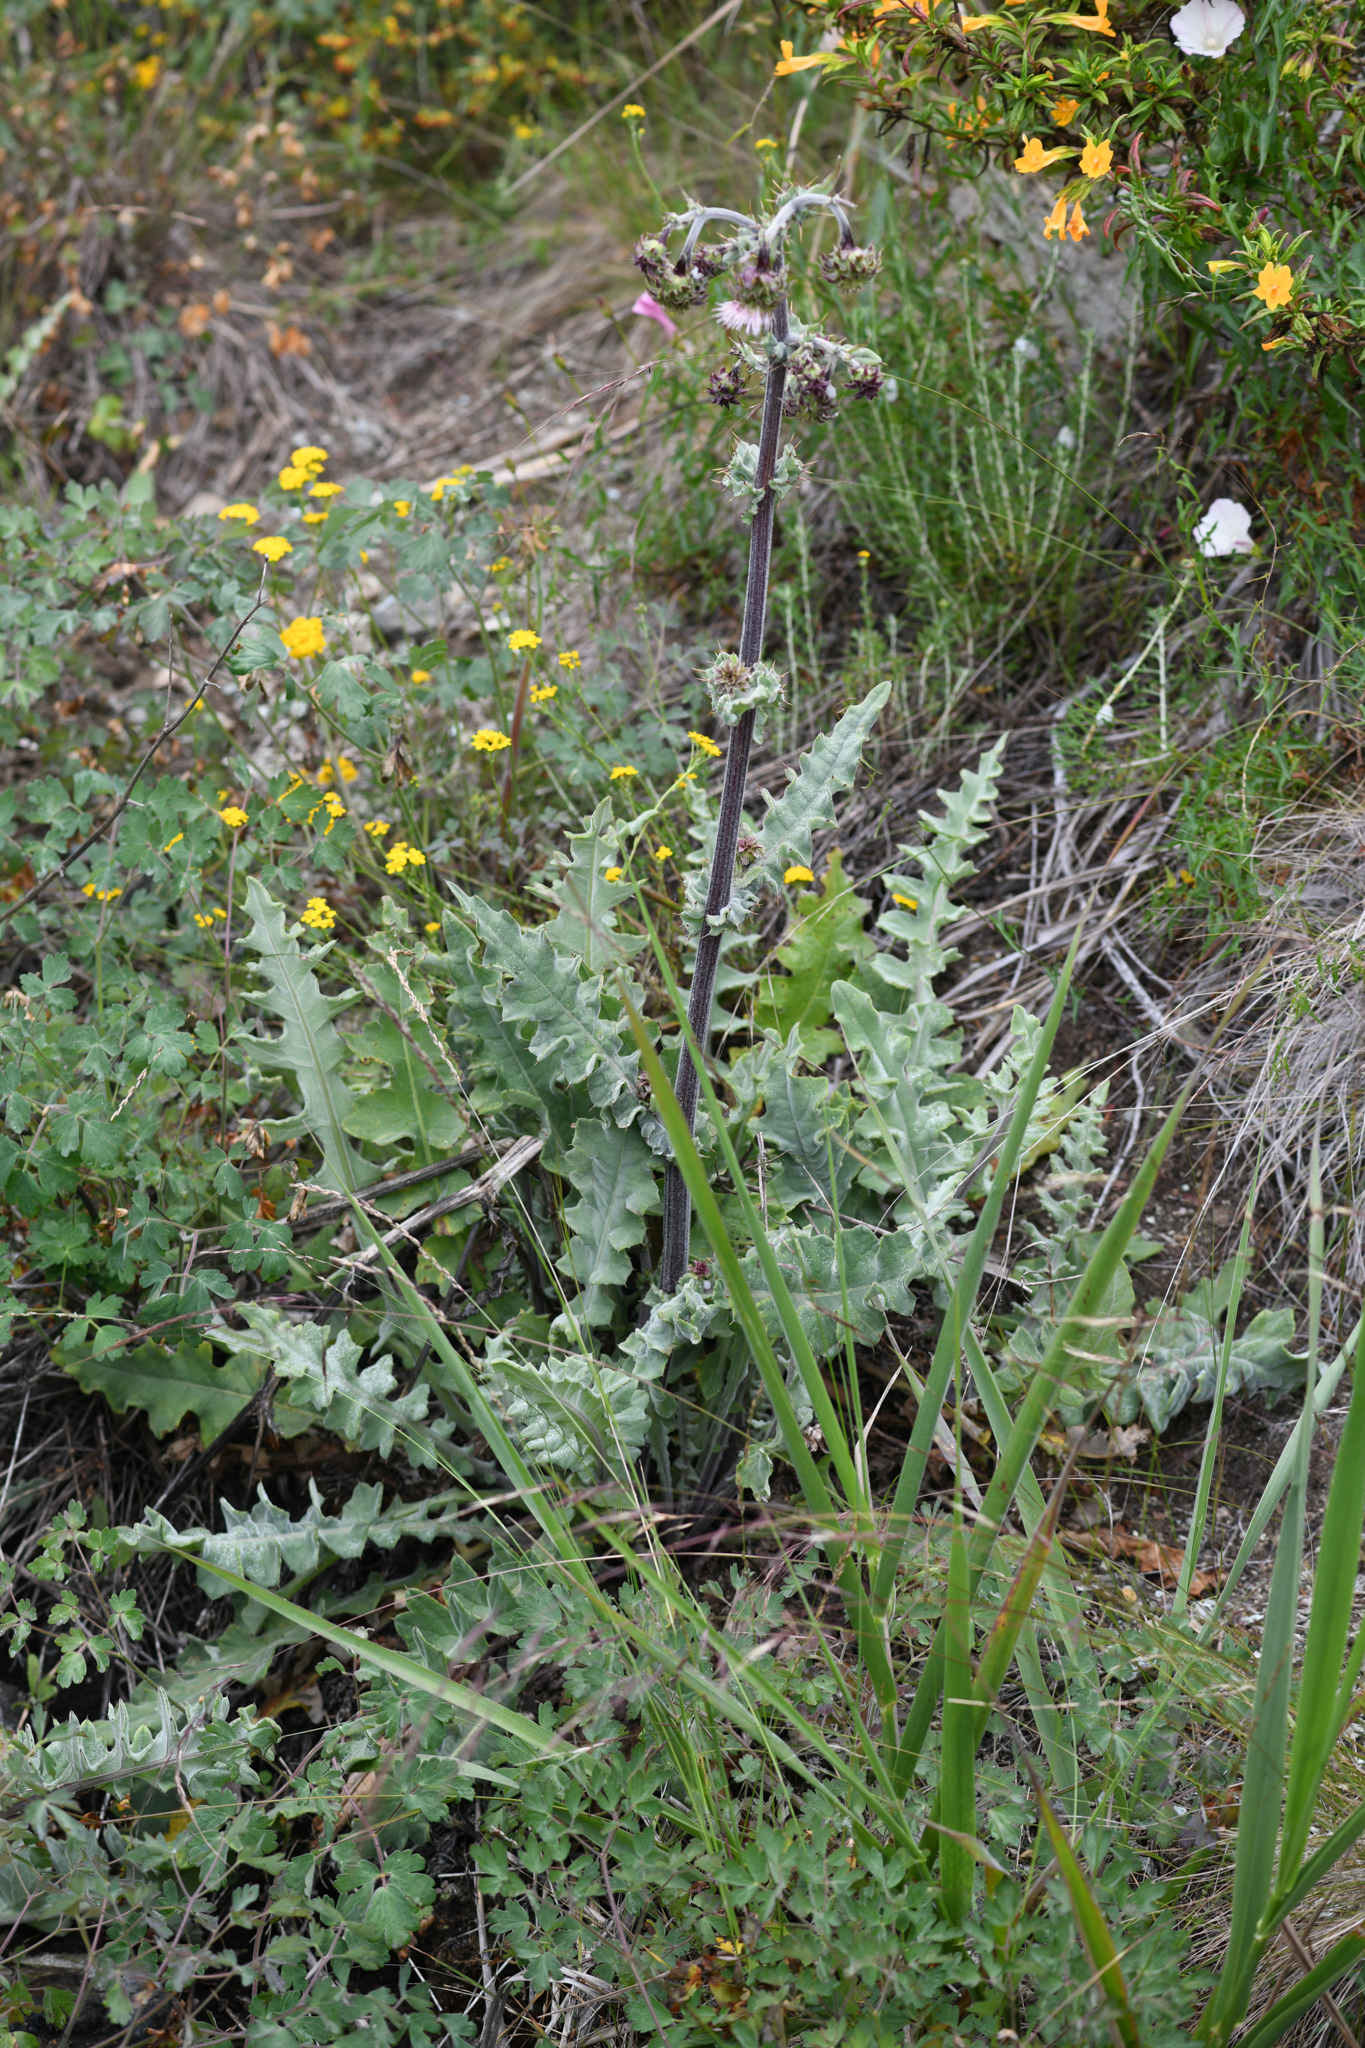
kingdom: Plantae
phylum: Tracheophyta
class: Magnoliopsida
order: Asterales
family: Asteraceae
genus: Cirsium
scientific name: Cirsium fontinale
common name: Fountain thistle
